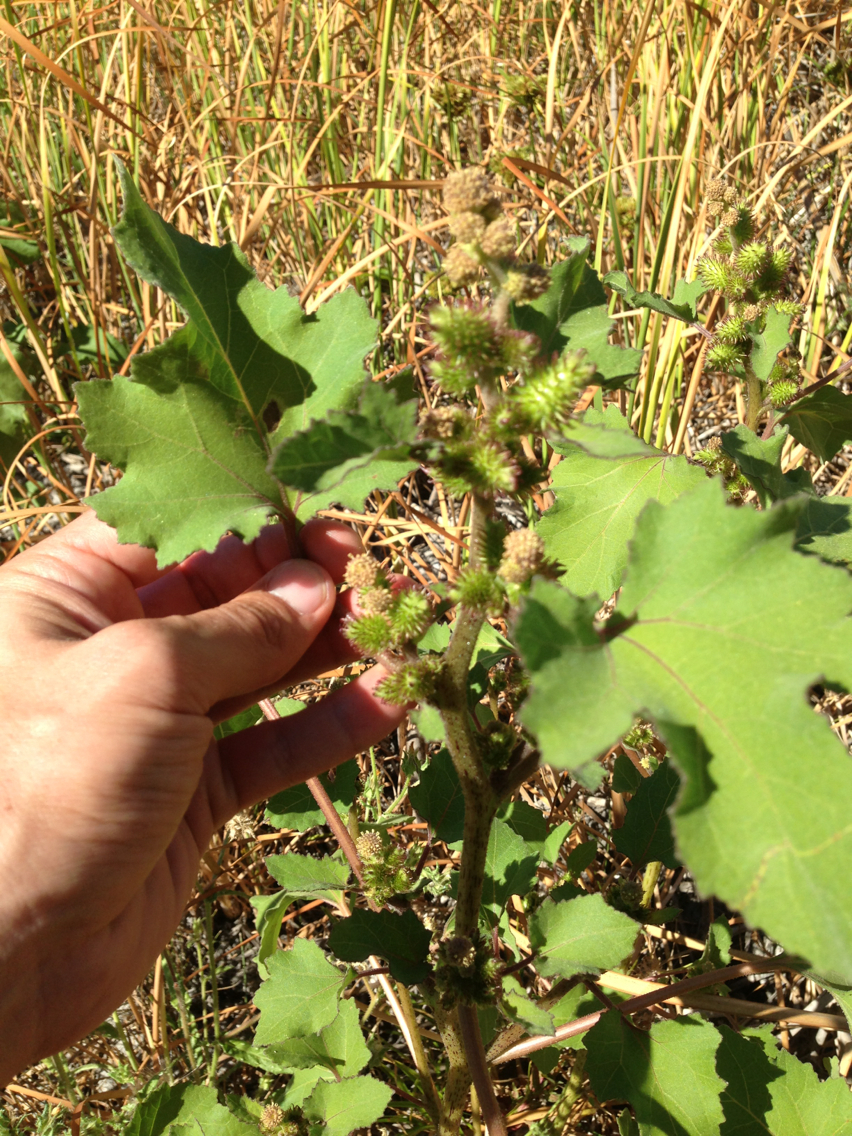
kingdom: Plantae
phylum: Tracheophyta
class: Magnoliopsida
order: Asterales
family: Asteraceae
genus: Xanthium
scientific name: Xanthium strumarium
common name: Rough cocklebur
